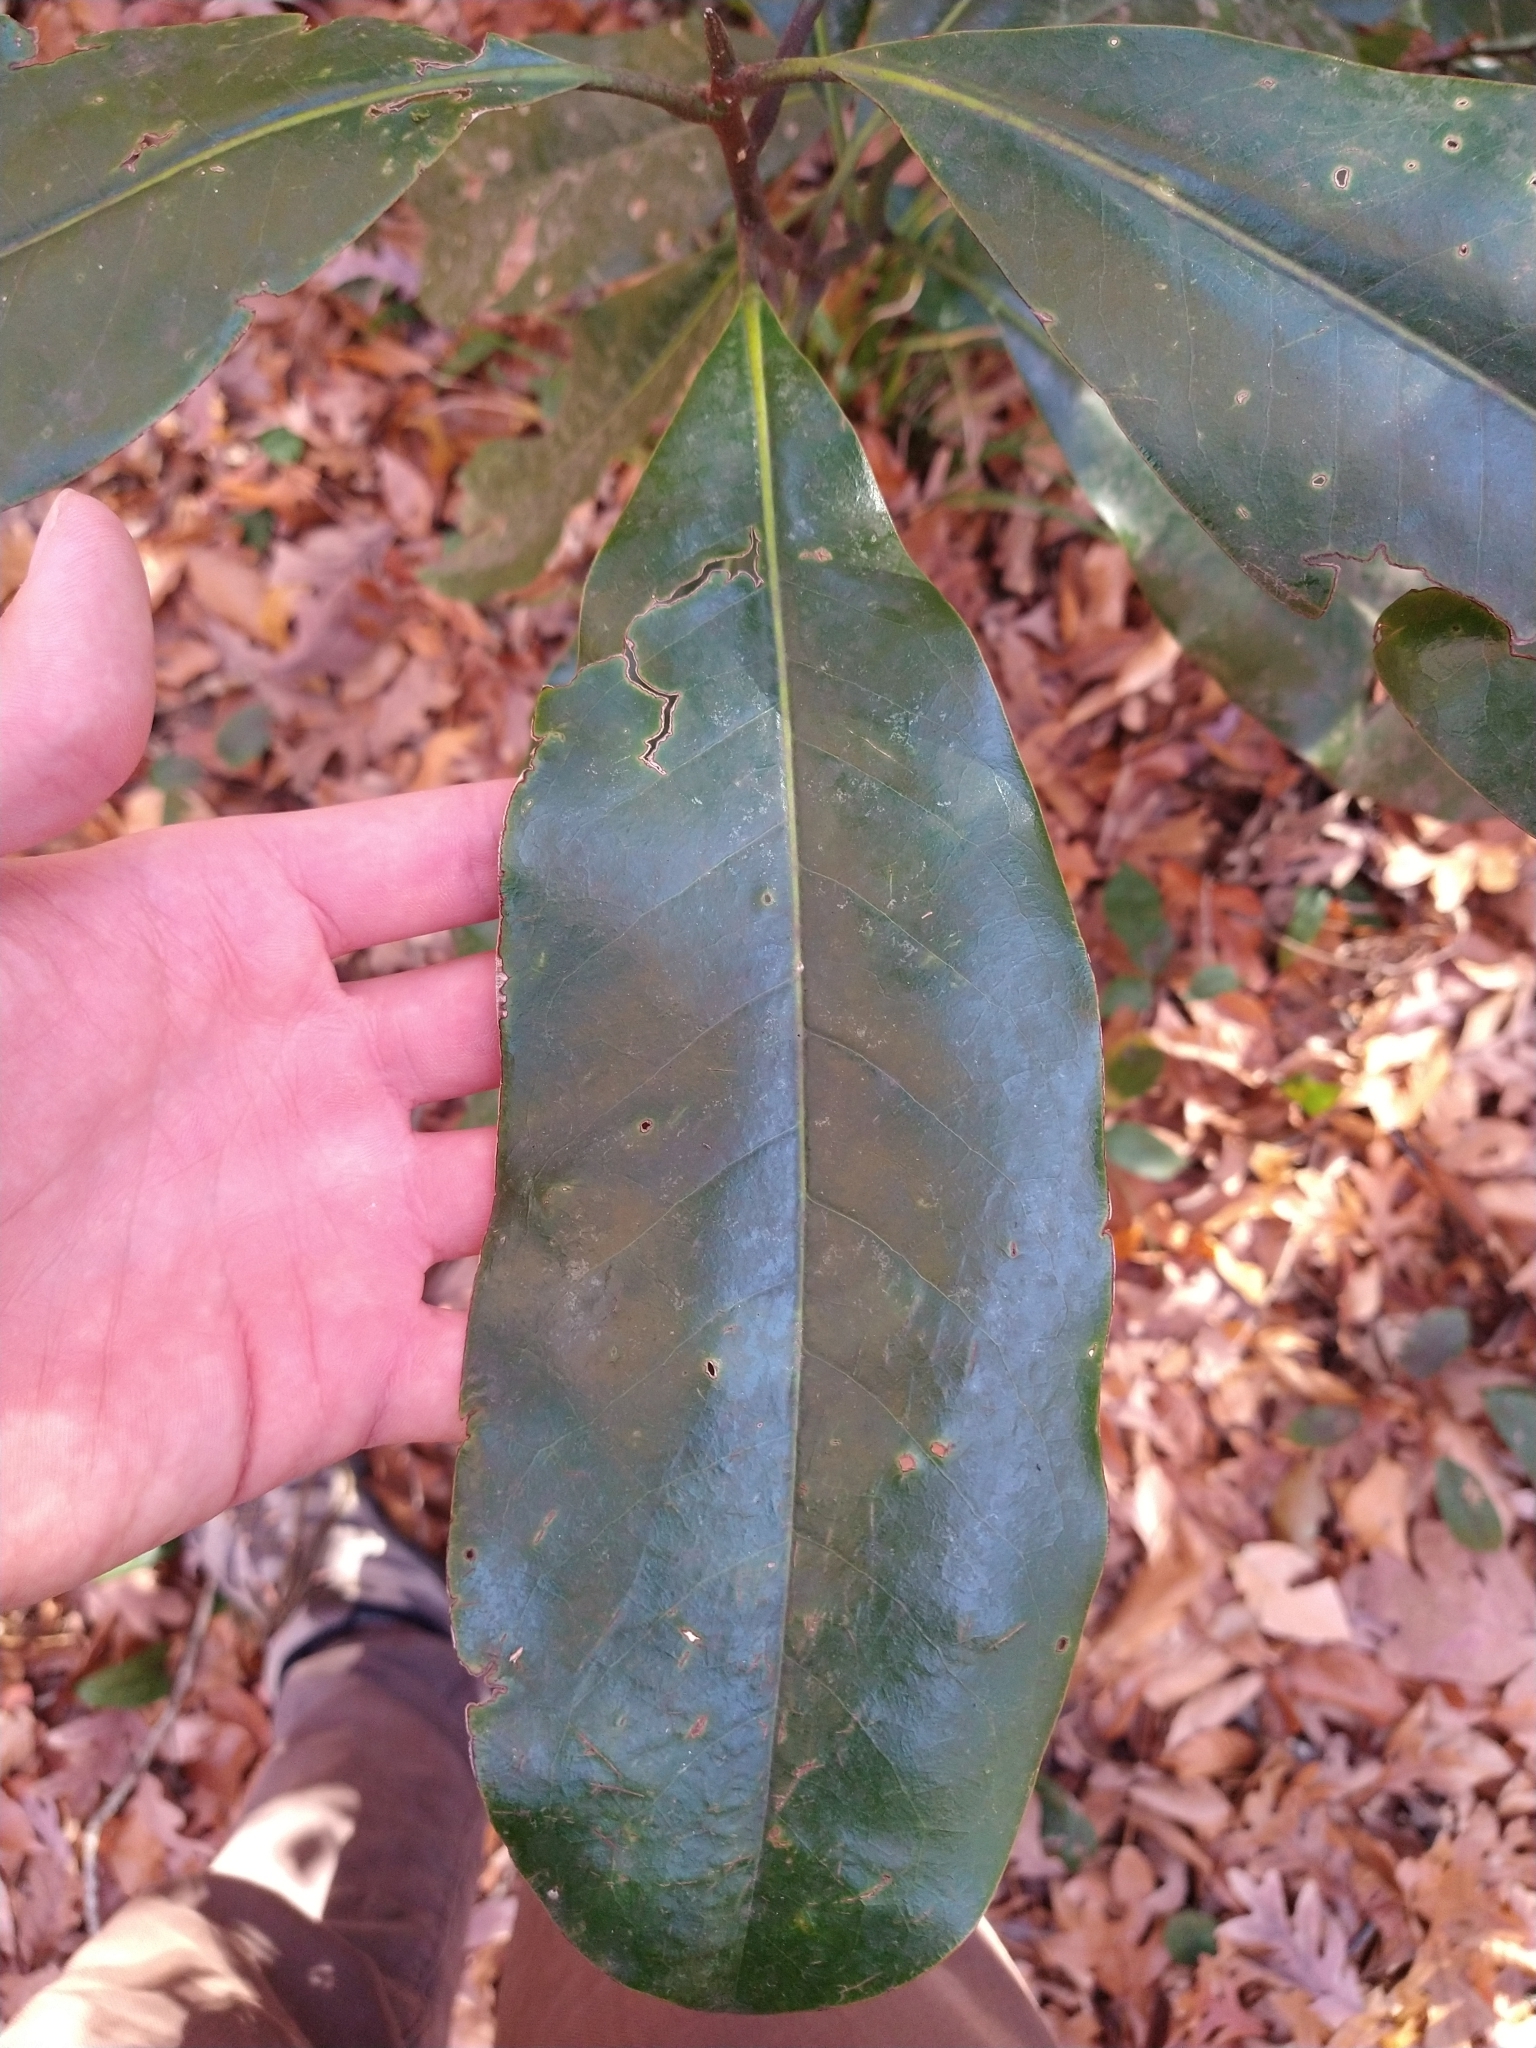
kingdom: Plantae
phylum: Tracheophyta
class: Magnoliopsida
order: Magnoliales
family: Magnoliaceae
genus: Magnolia
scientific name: Magnolia grandiflora
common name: Southern magnolia
